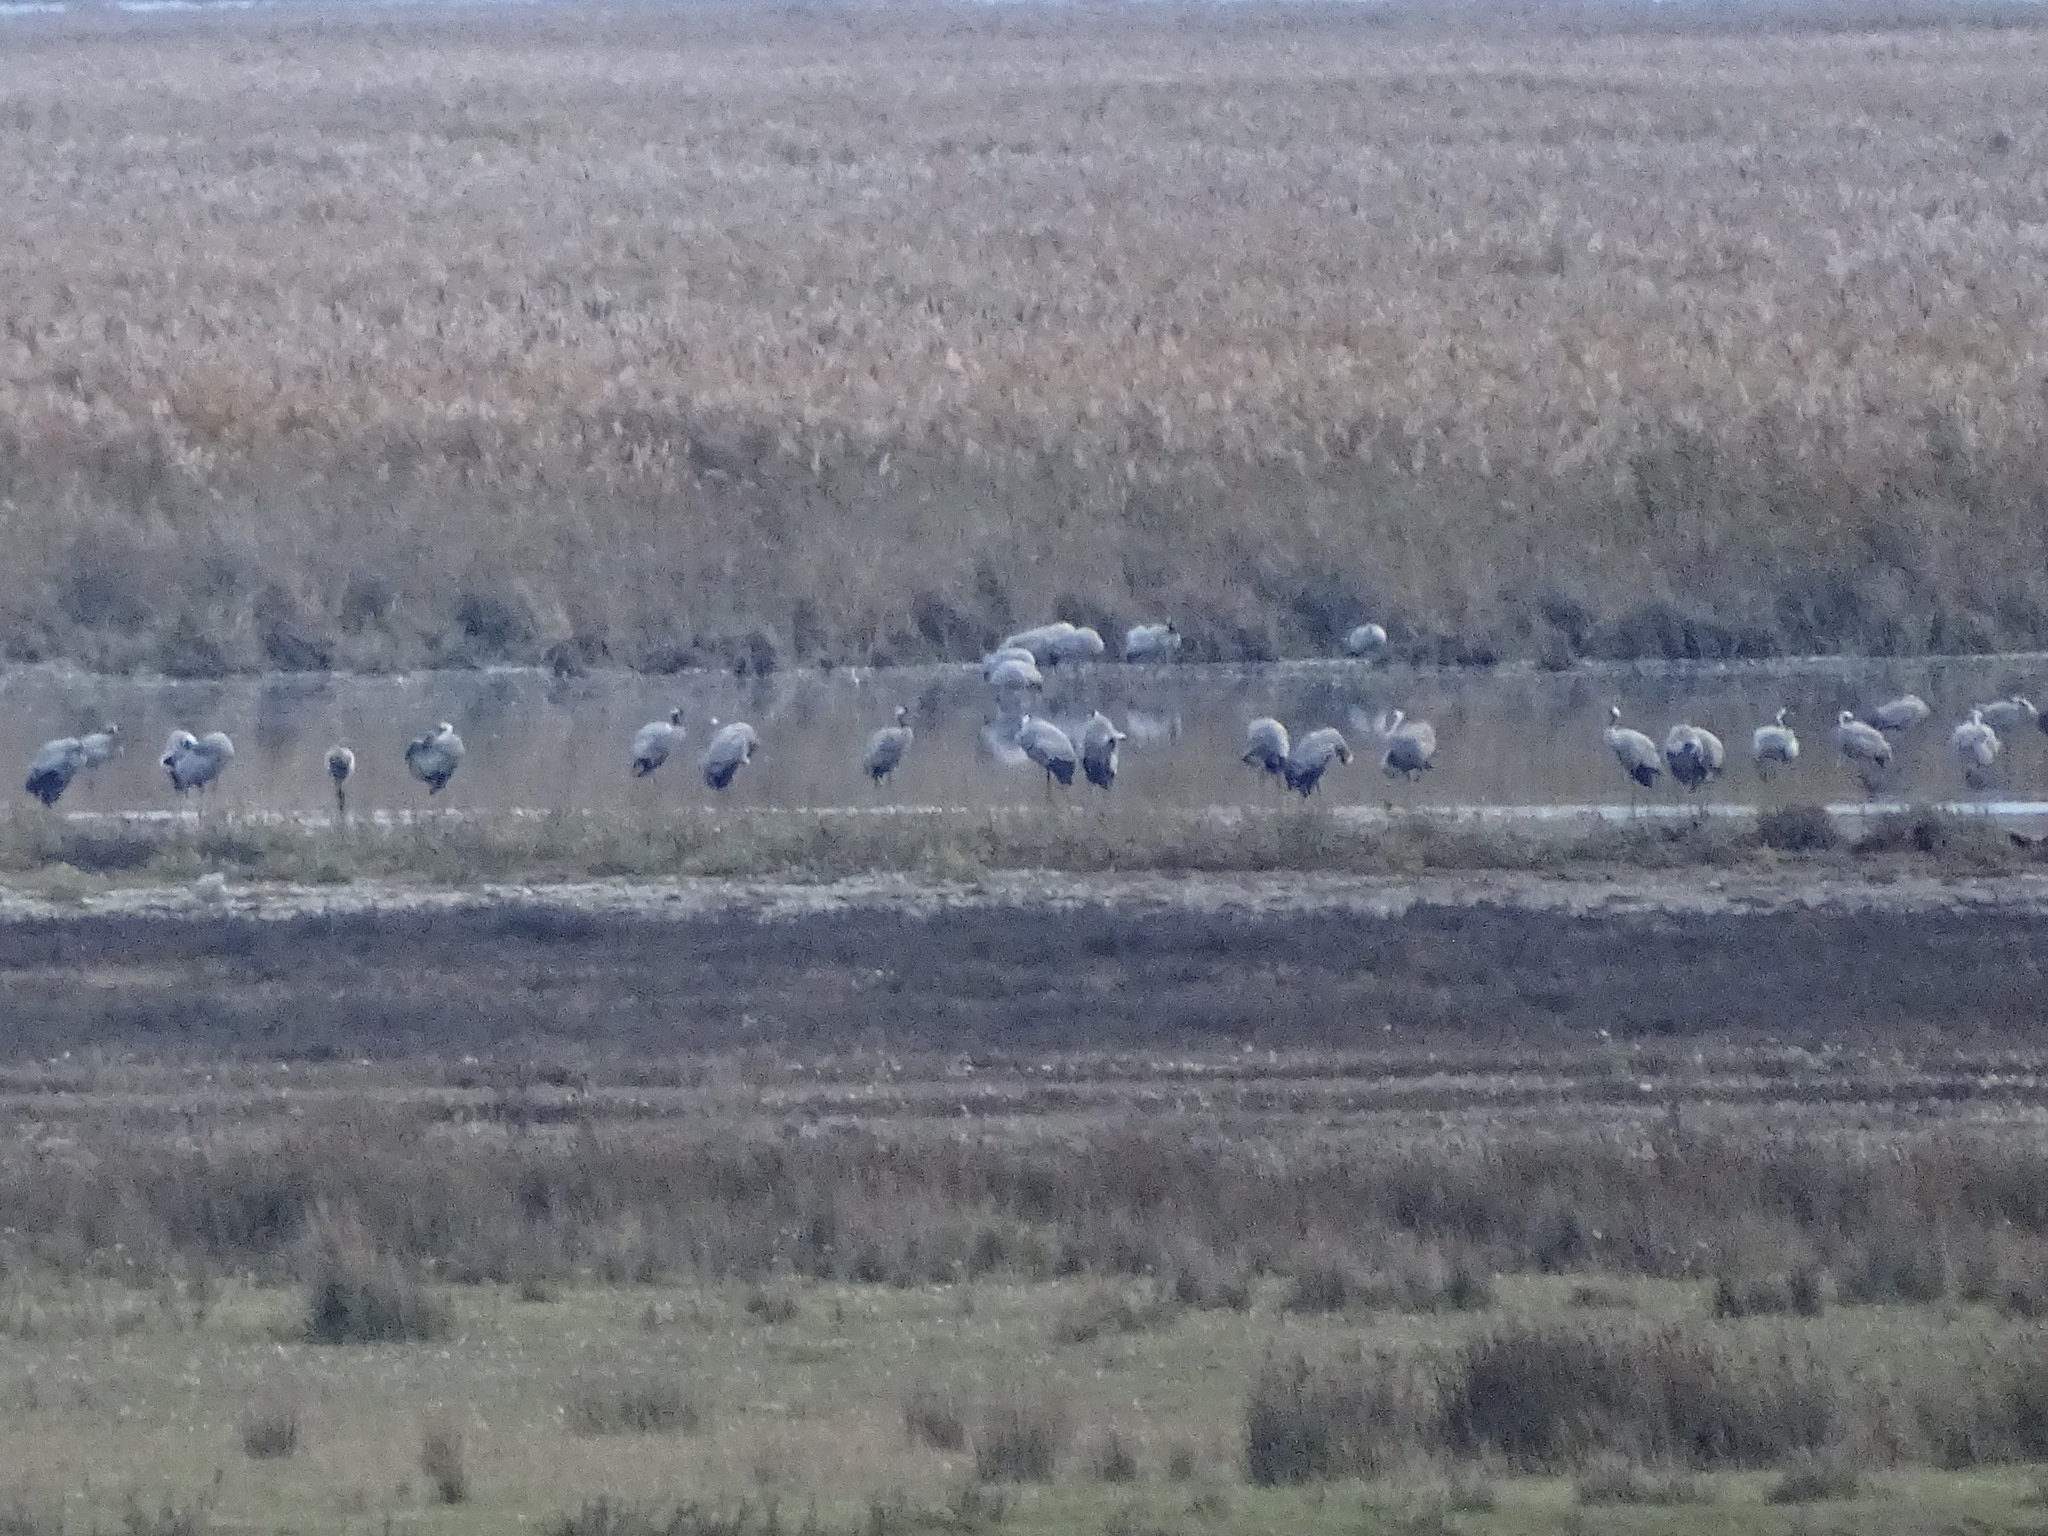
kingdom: Animalia
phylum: Chordata
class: Aves
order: Gruiformes
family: Gruidae
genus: Grus
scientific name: Grus grus
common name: Common crane
